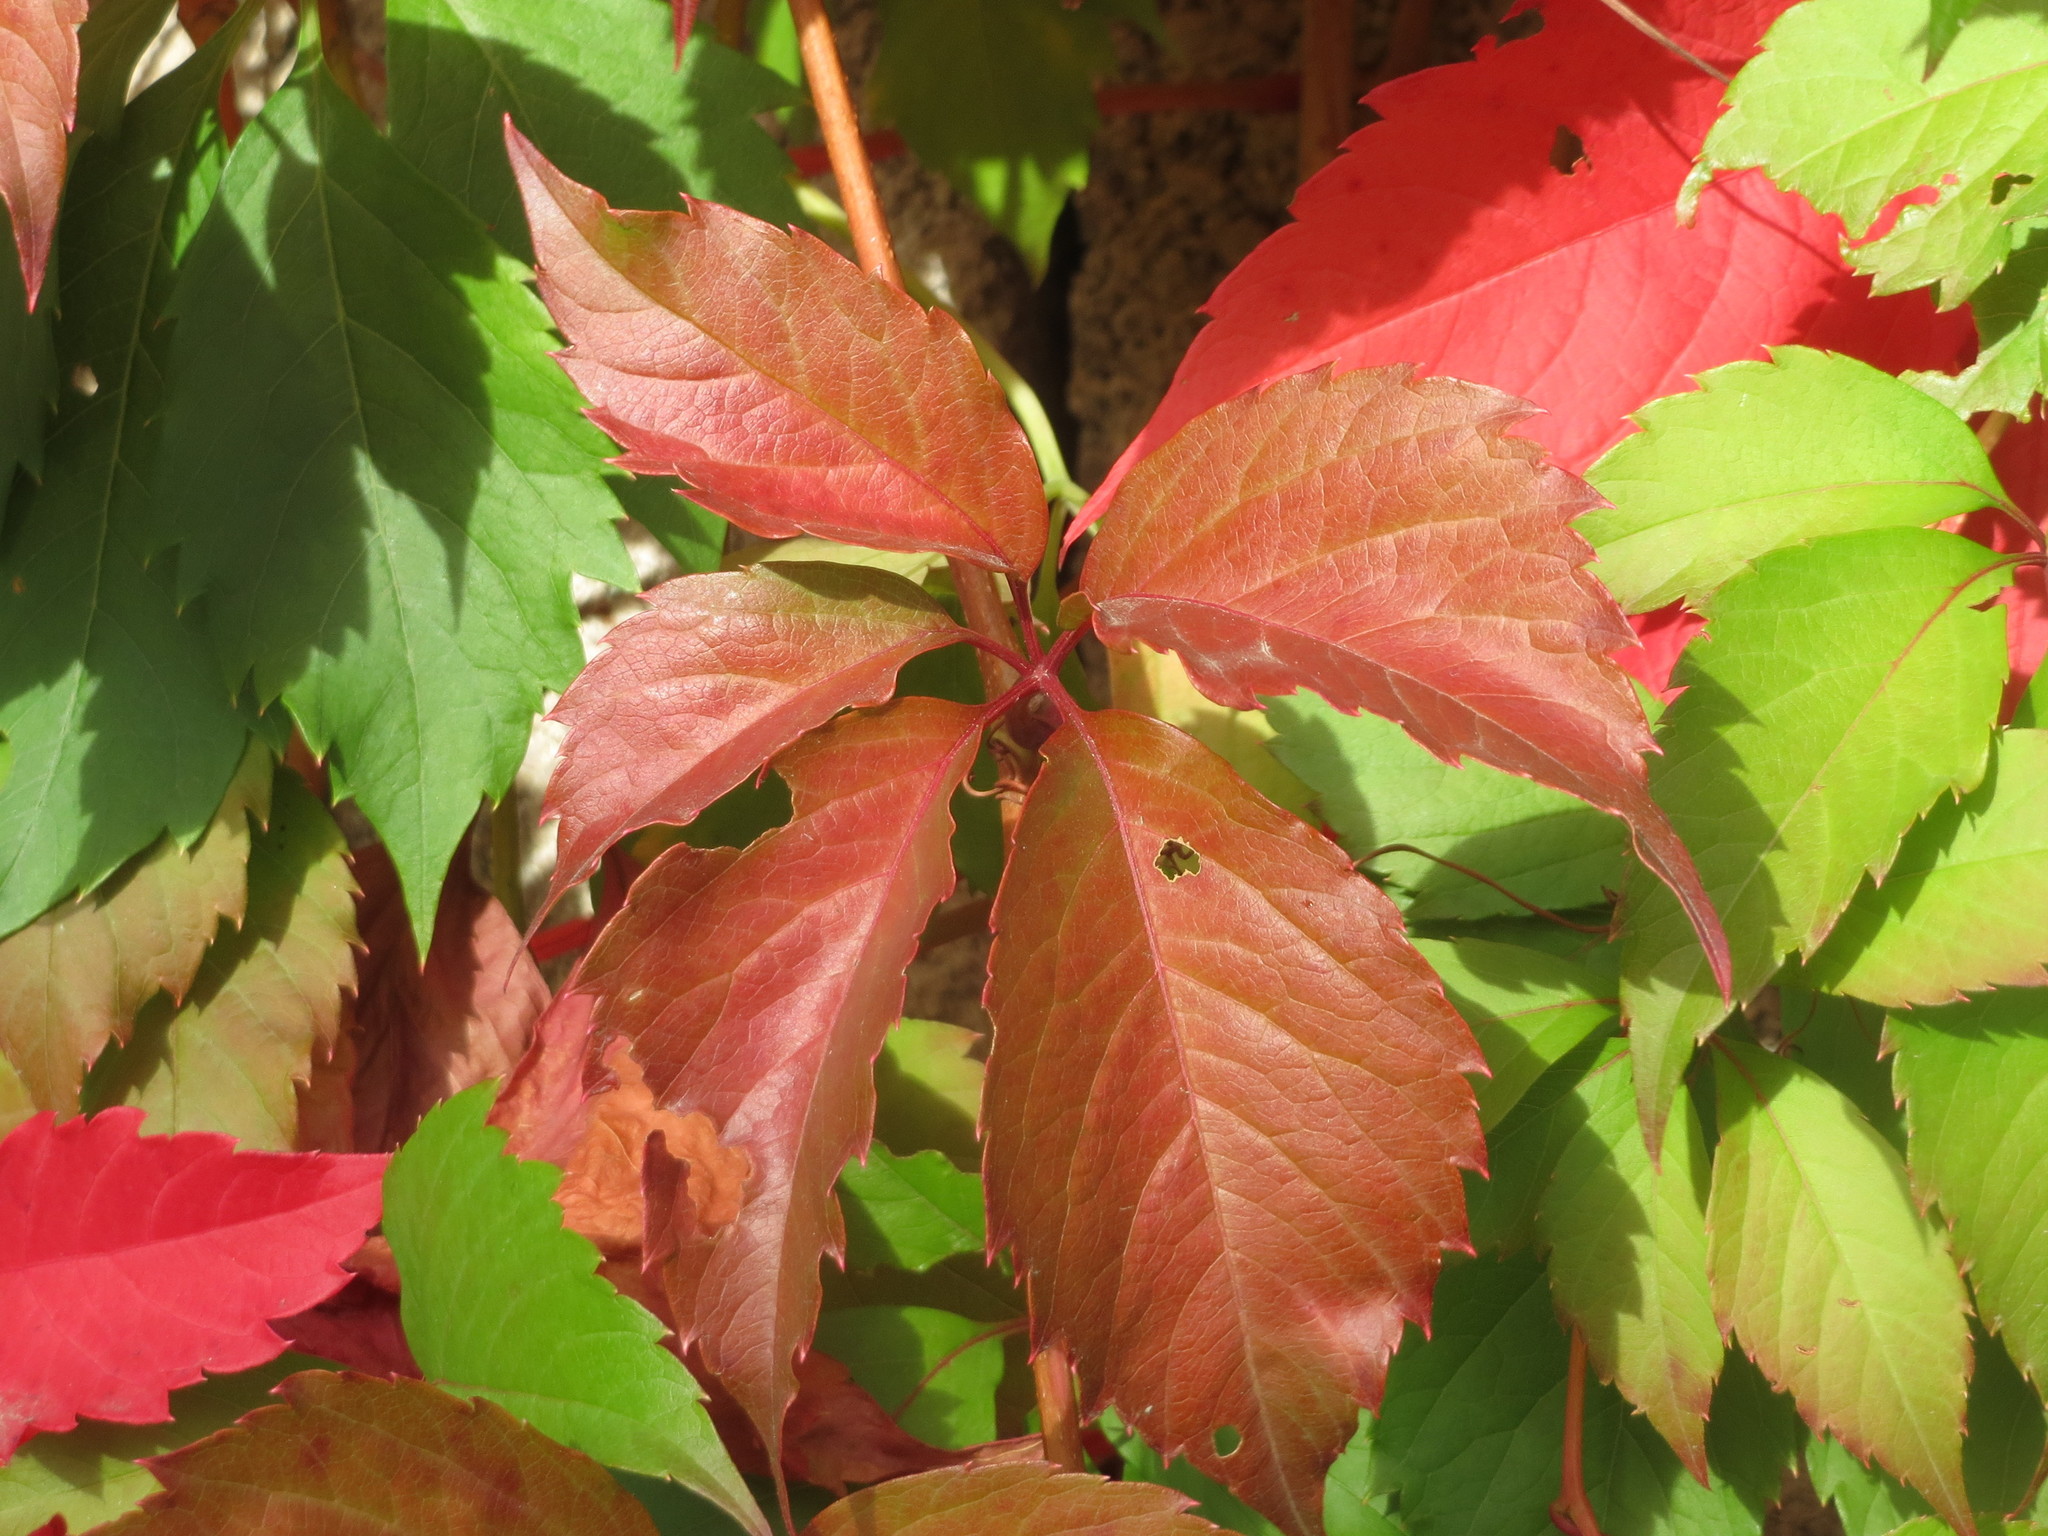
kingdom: Plantae
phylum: Tracheophyta
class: Magnoliopsida
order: Vitales
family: Vitaceae
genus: Parthenocissus
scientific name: Parthenocissus quinquefolia
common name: Virginia-creeper
